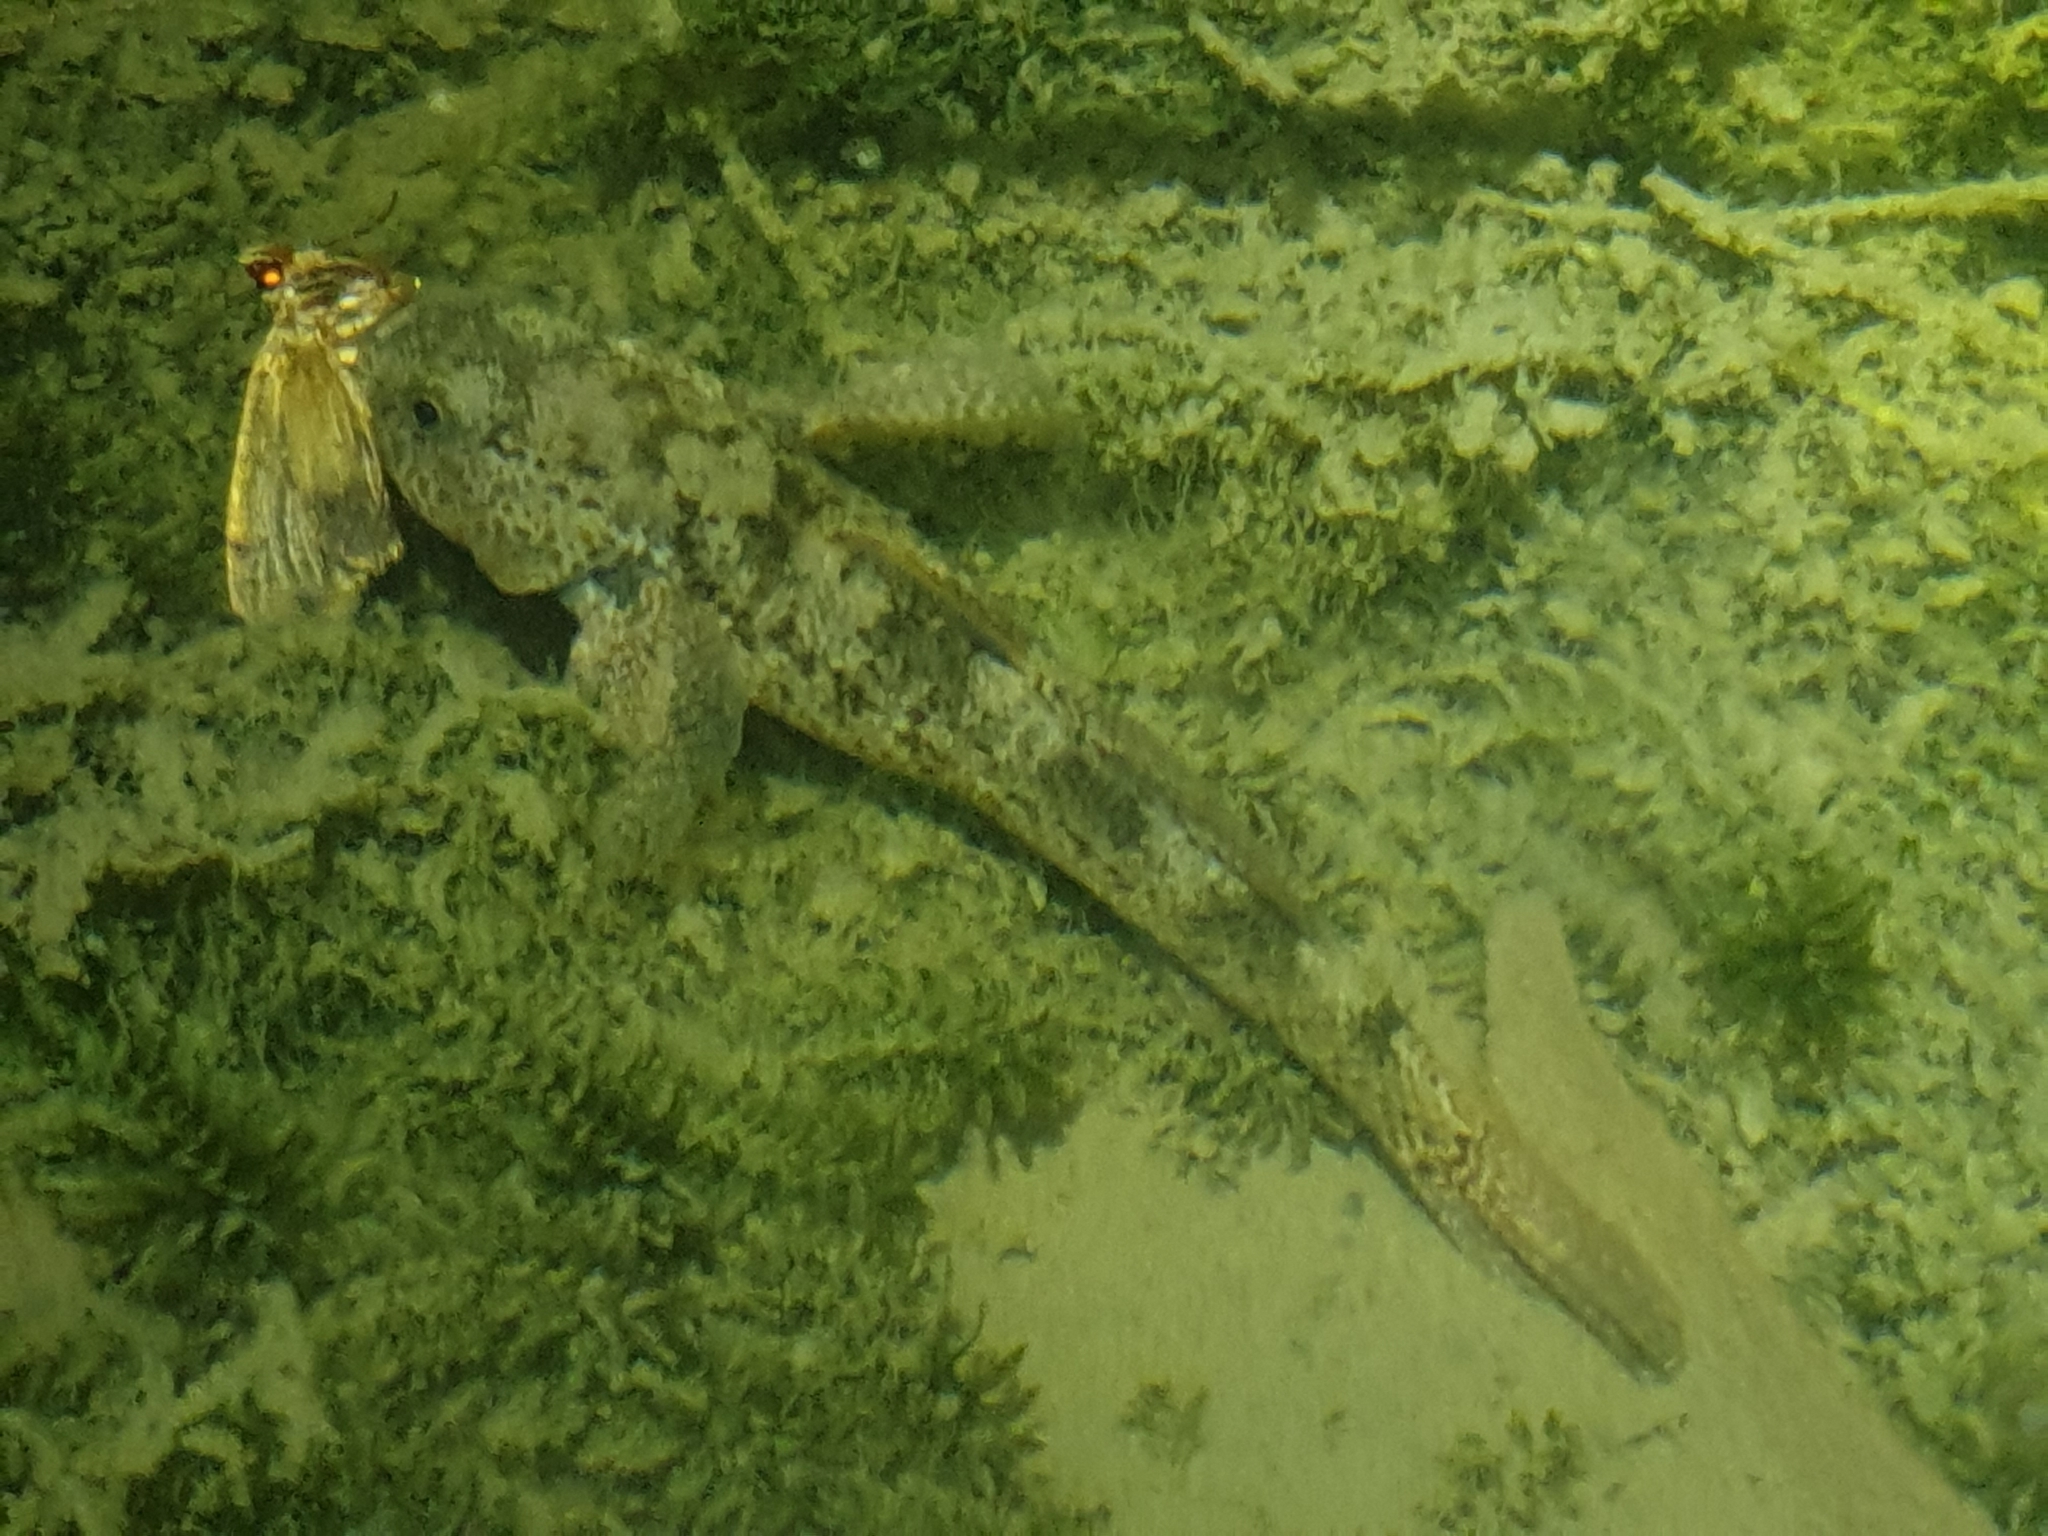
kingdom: Animalia
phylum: Chordata
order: Perciformes
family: Eleotridae
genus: Gobiomorphus
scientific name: Gobiomorphus breviceps
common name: Upland bully
